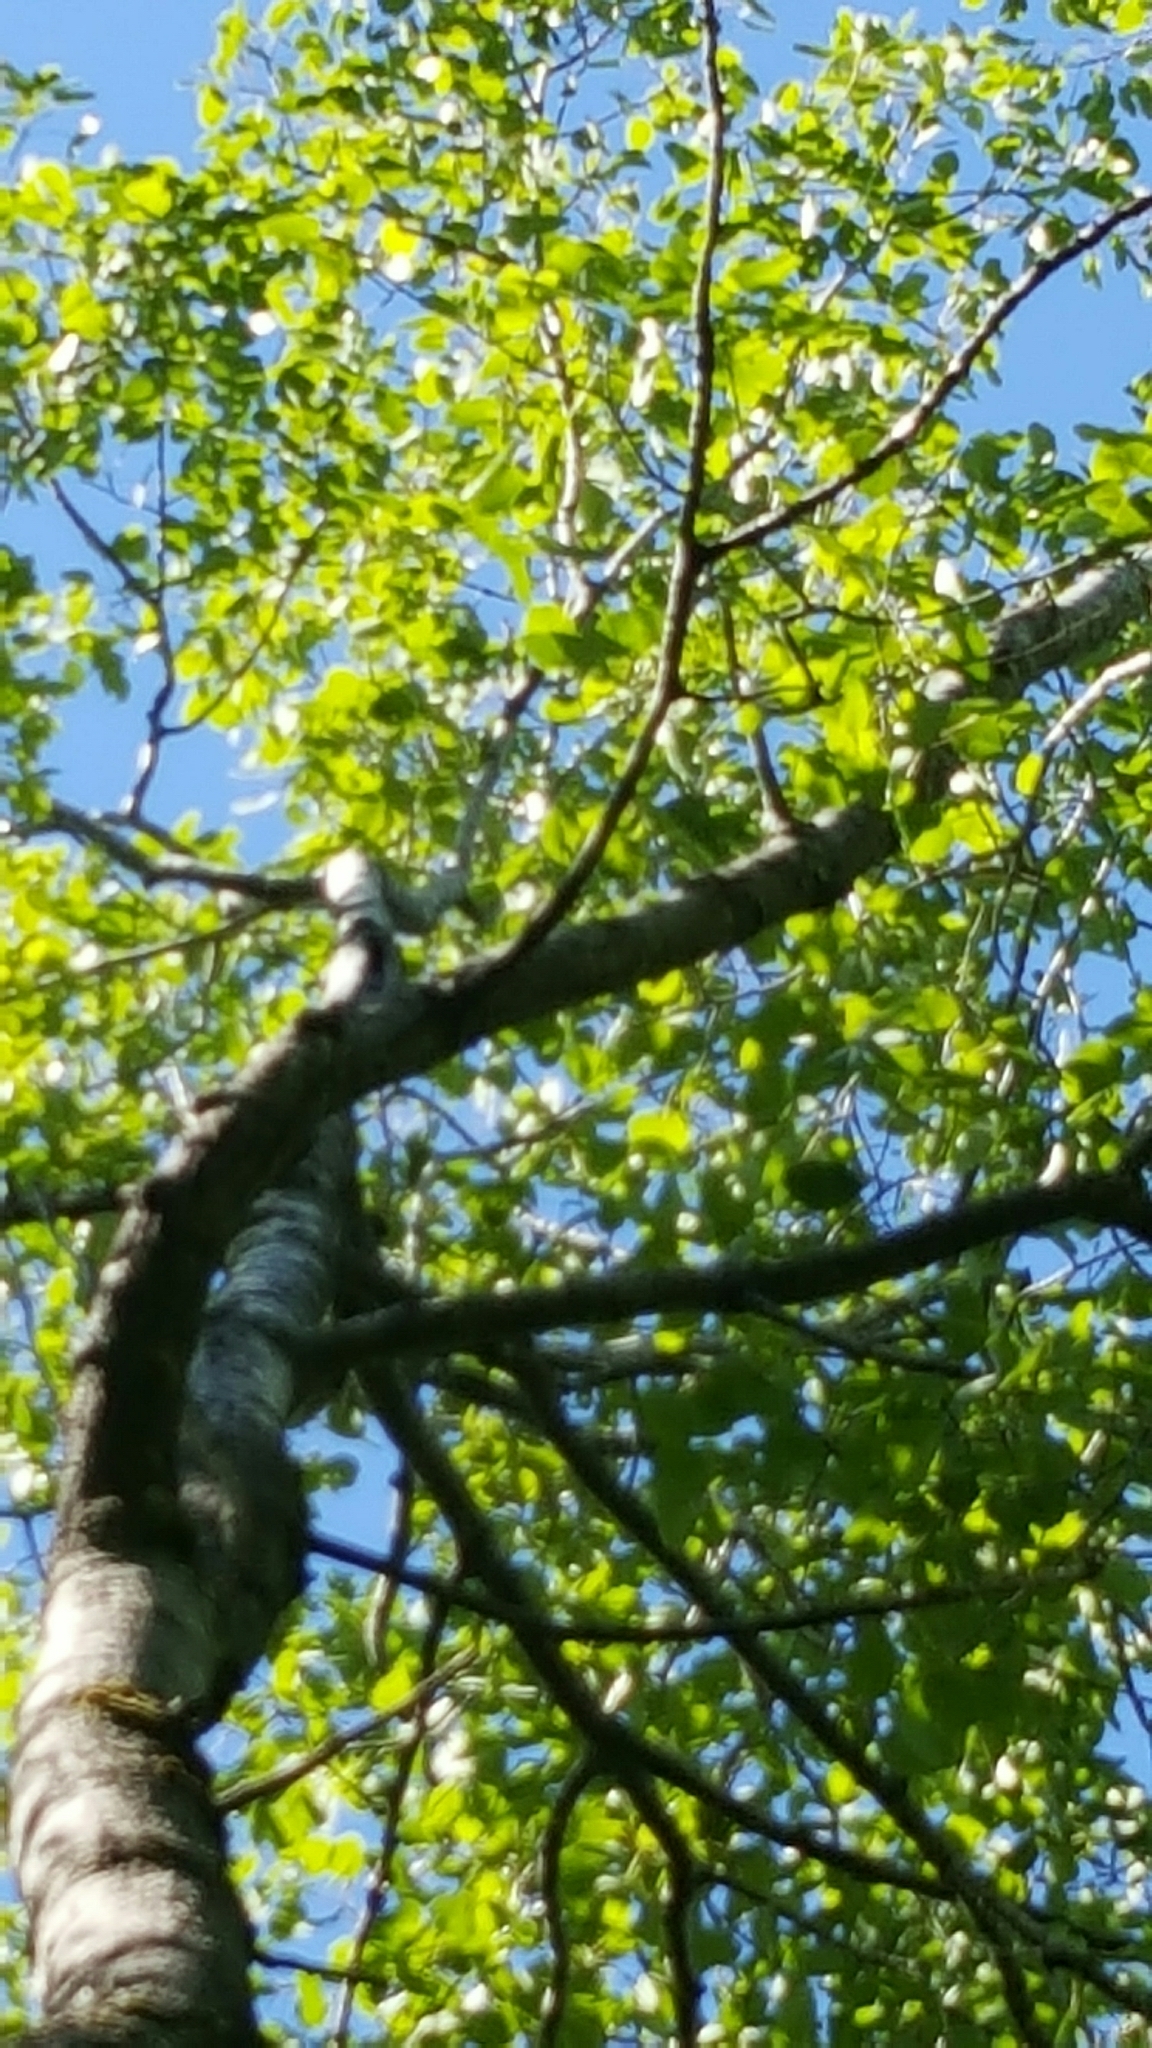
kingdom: Plantae
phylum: Tracheophyta
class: Magnoliopsida
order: Malpighiales
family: Salicaceae
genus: Populus
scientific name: Populus grandidentata
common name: Bigtooth aspen
